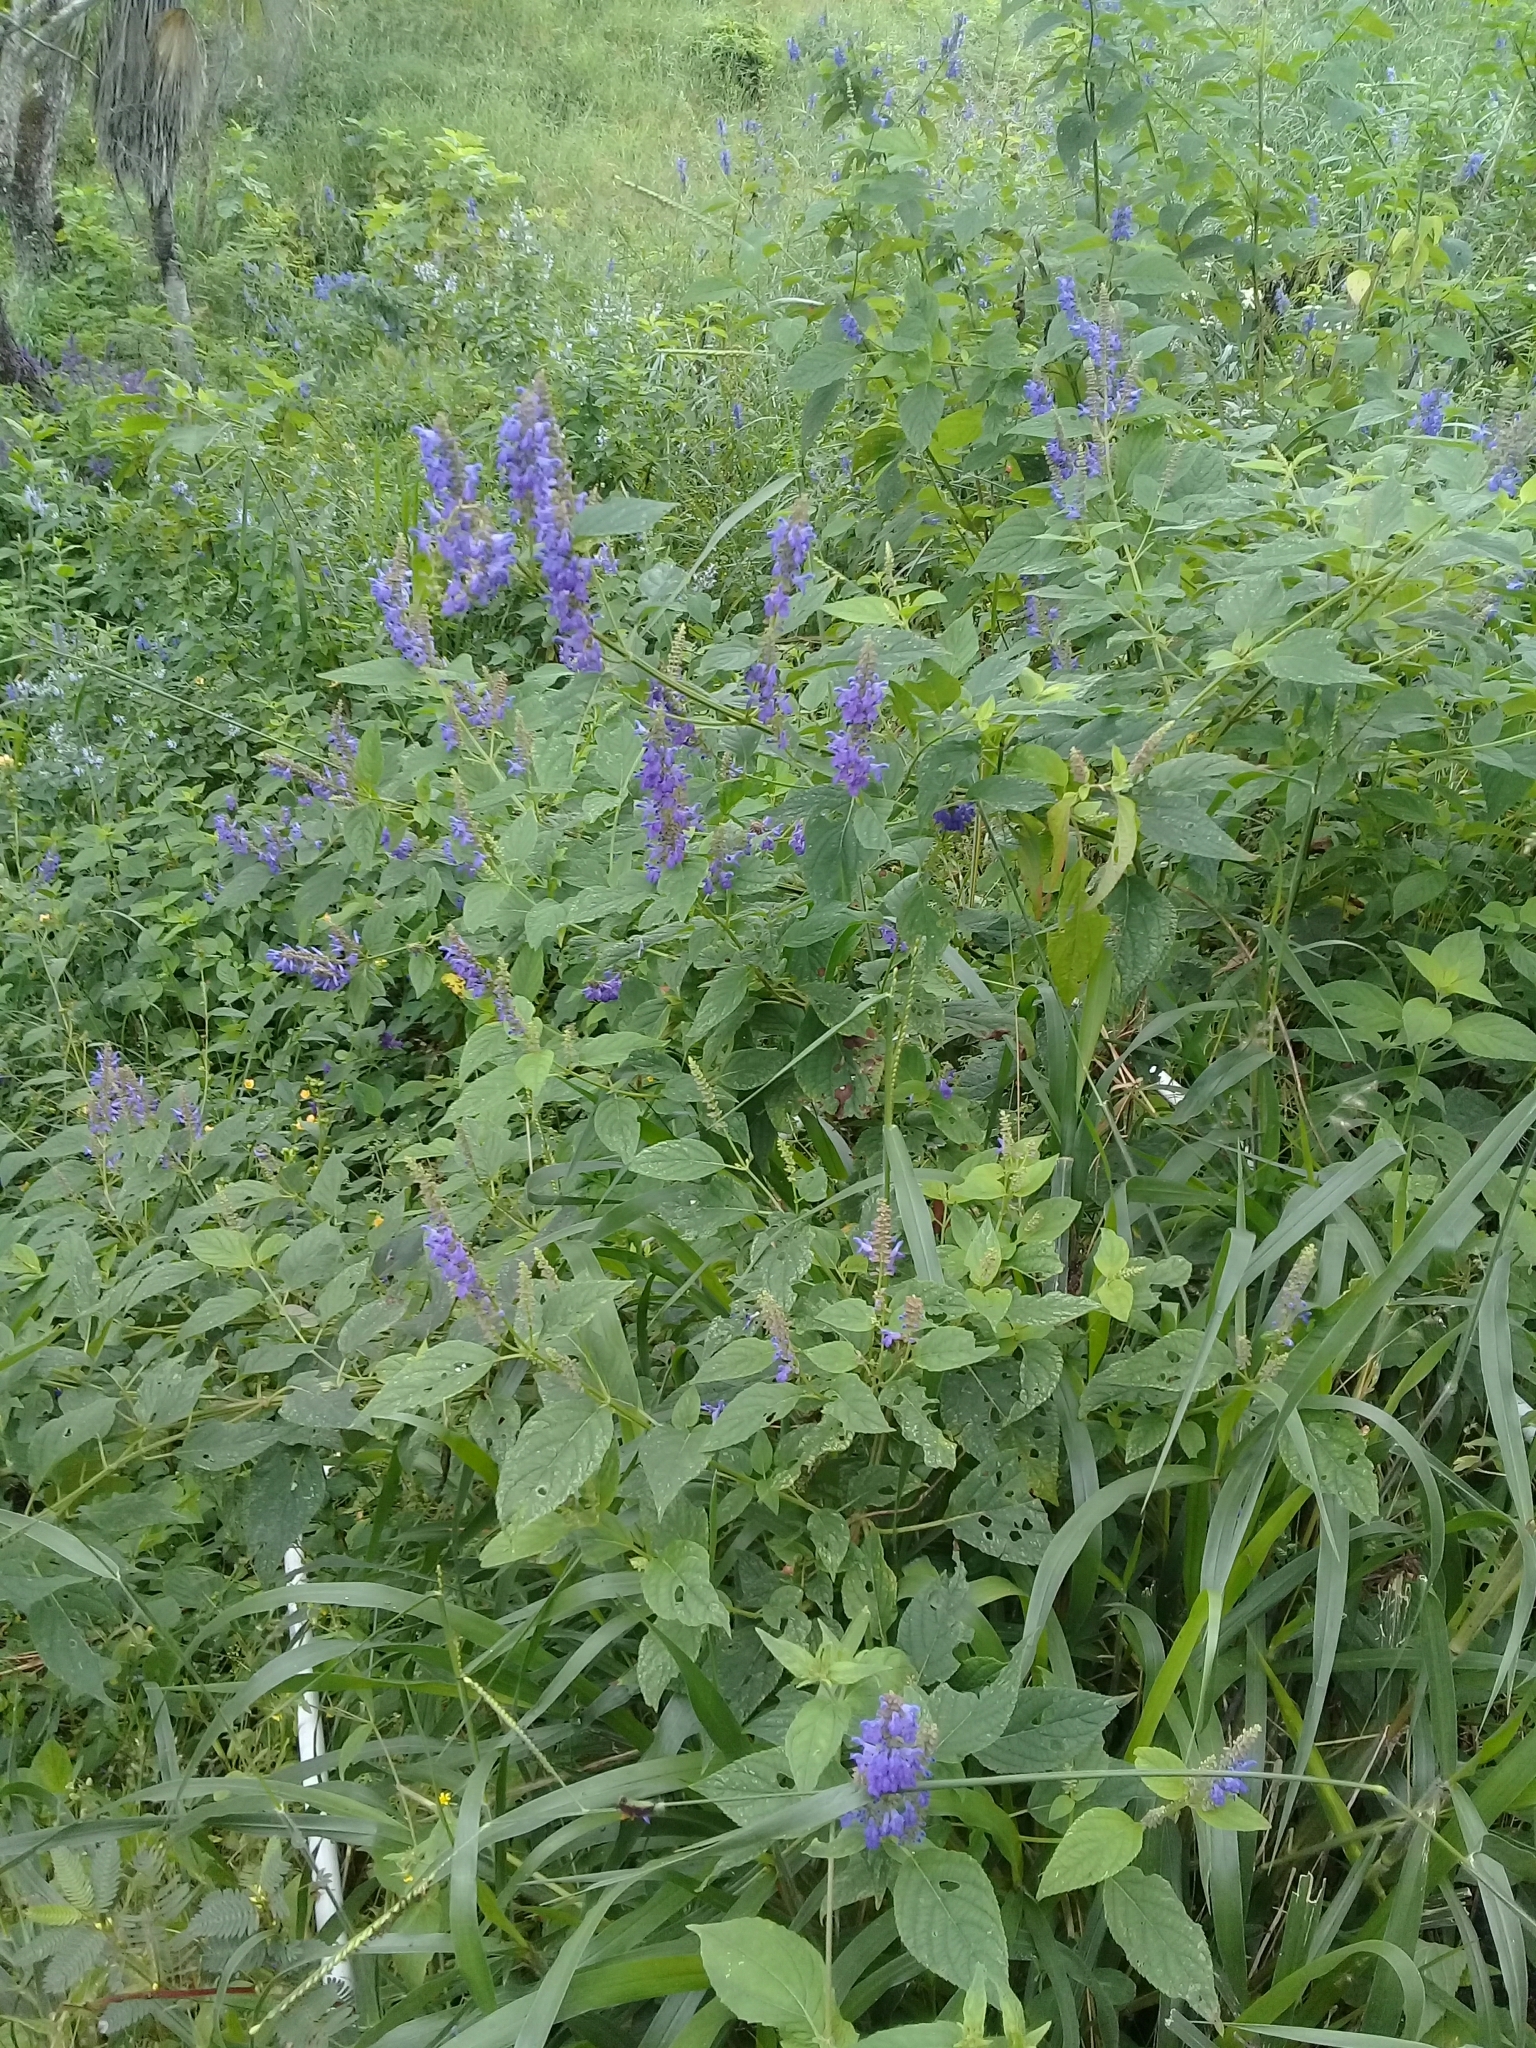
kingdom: Plantae
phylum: Tracheophyta
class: Magnoliopsida
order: Lamiales
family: Lamiaceae
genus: Salvia
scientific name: Salvia polystachia
